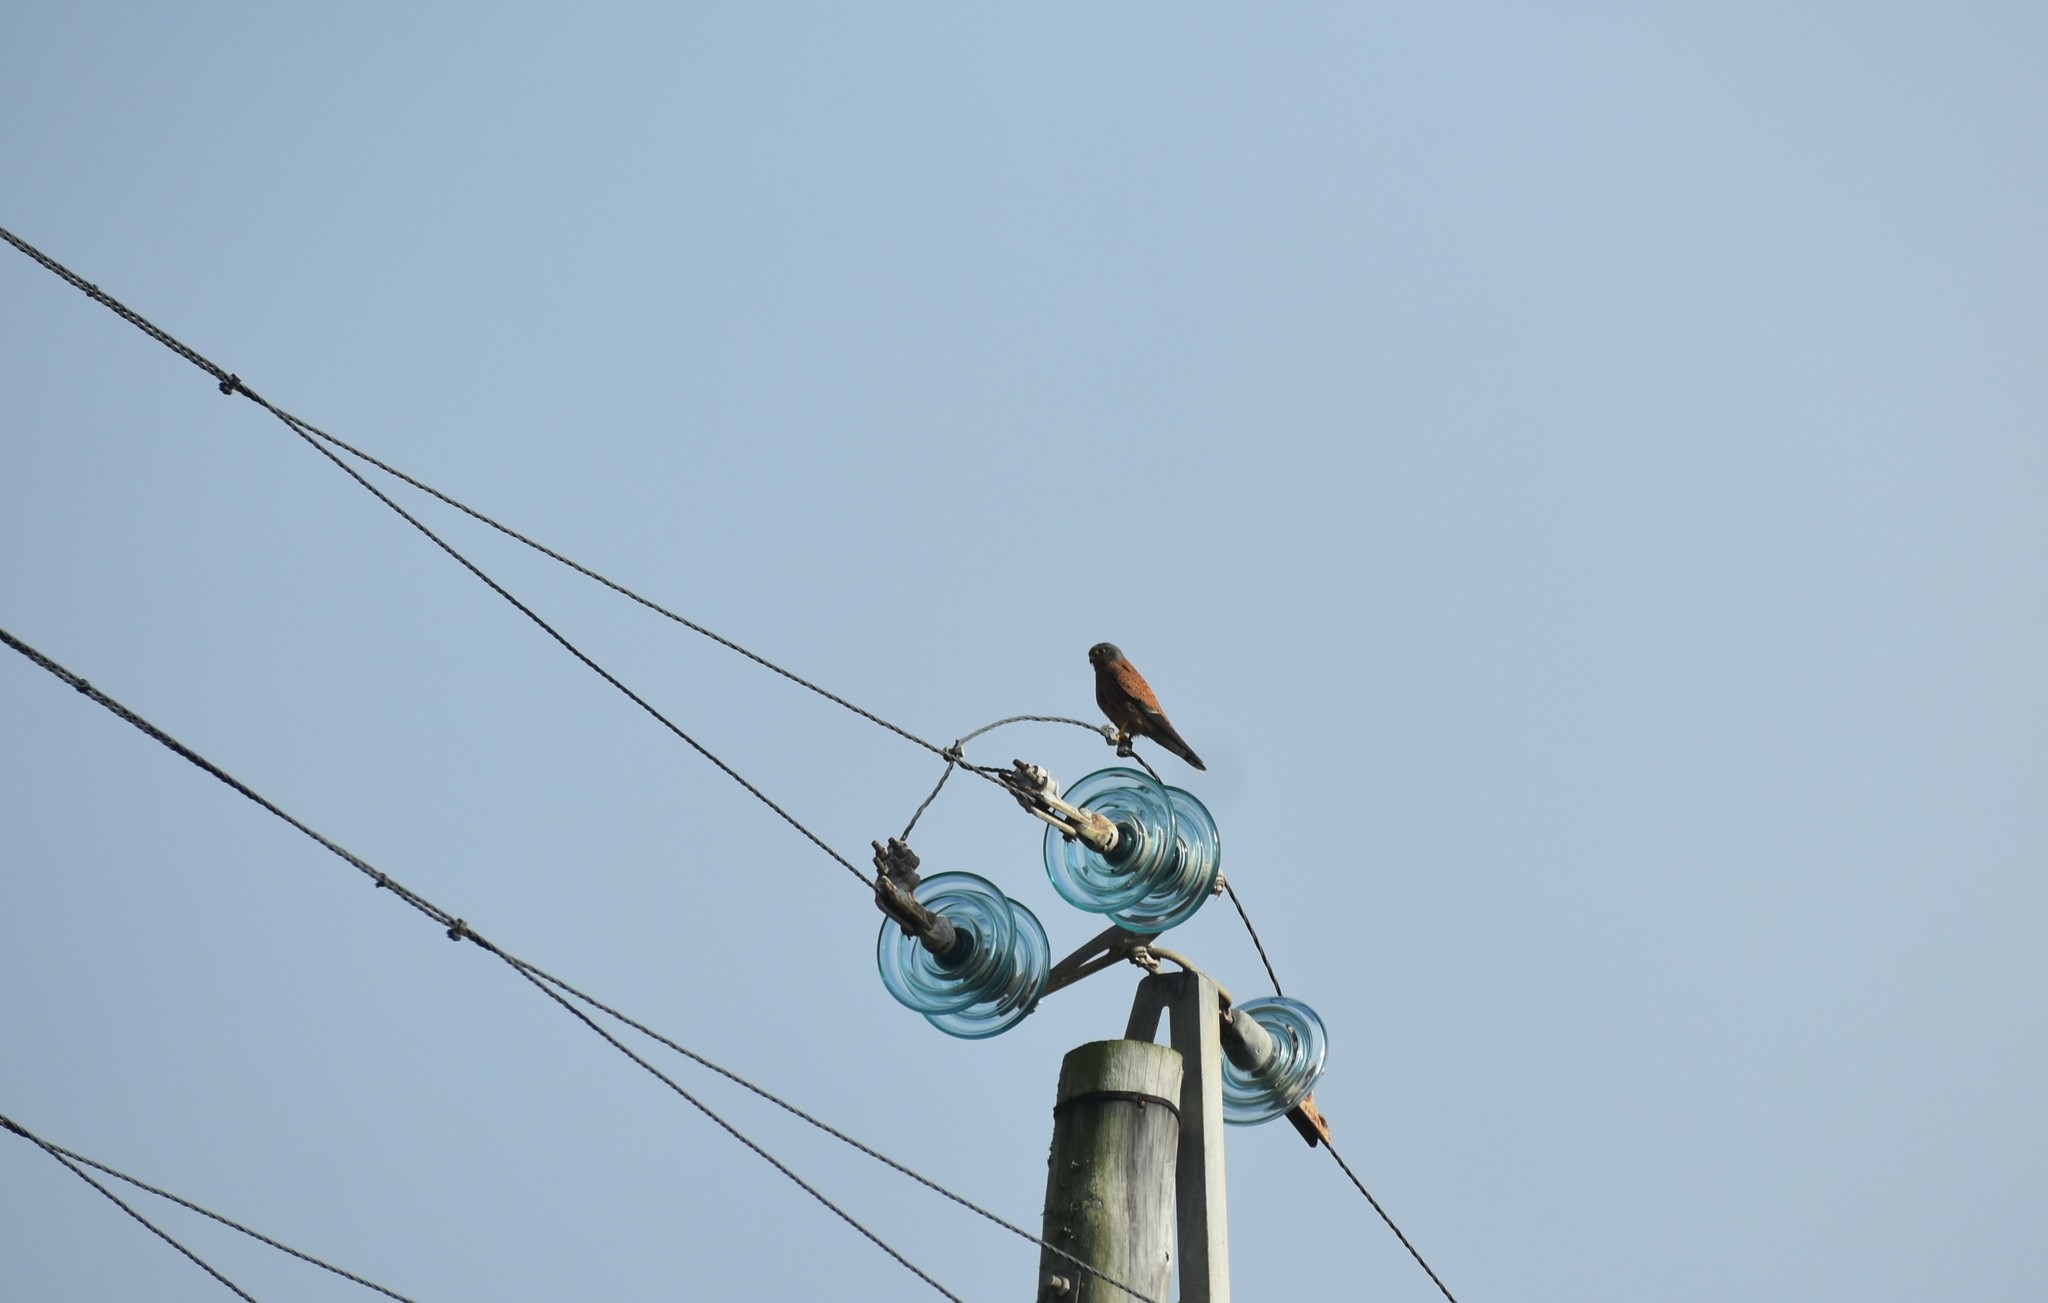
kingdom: Animalia
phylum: Chordata
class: Aves
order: Falconiformes
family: Falconidae
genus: Falco
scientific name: Falco rupicolus
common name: Rock kestrel
